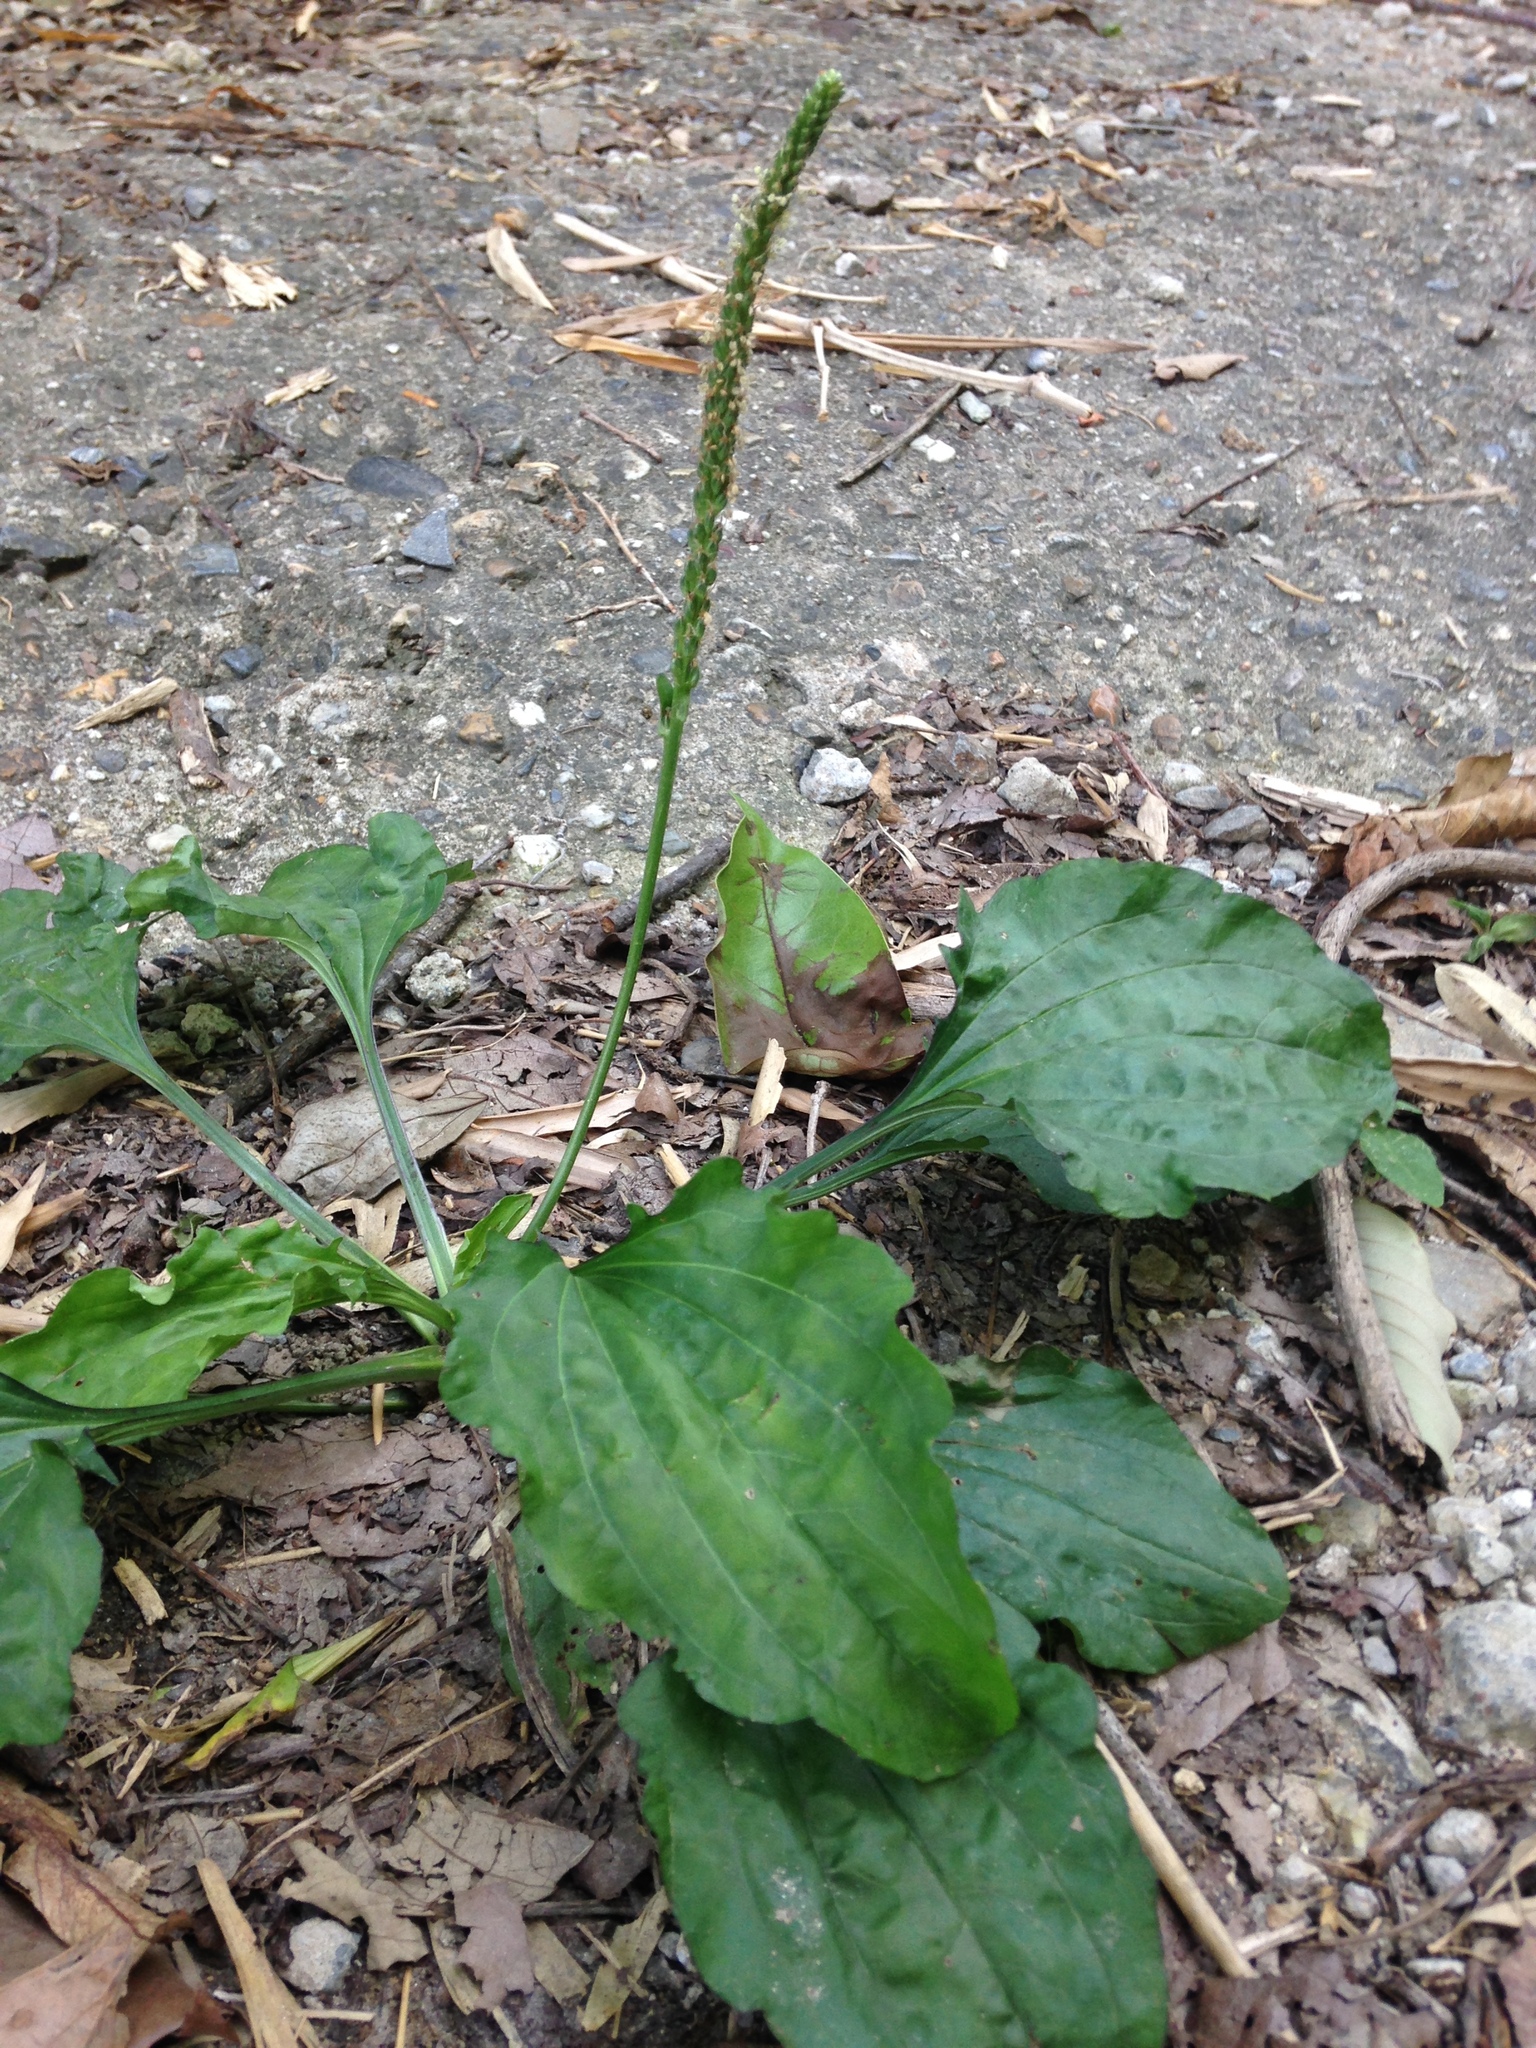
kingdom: Plantae
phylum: Tracheophyta
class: Magnoliopsida
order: Lamiales
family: Plantaginaceae
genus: Plantago
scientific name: Plantago asiatica
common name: Psyllium
